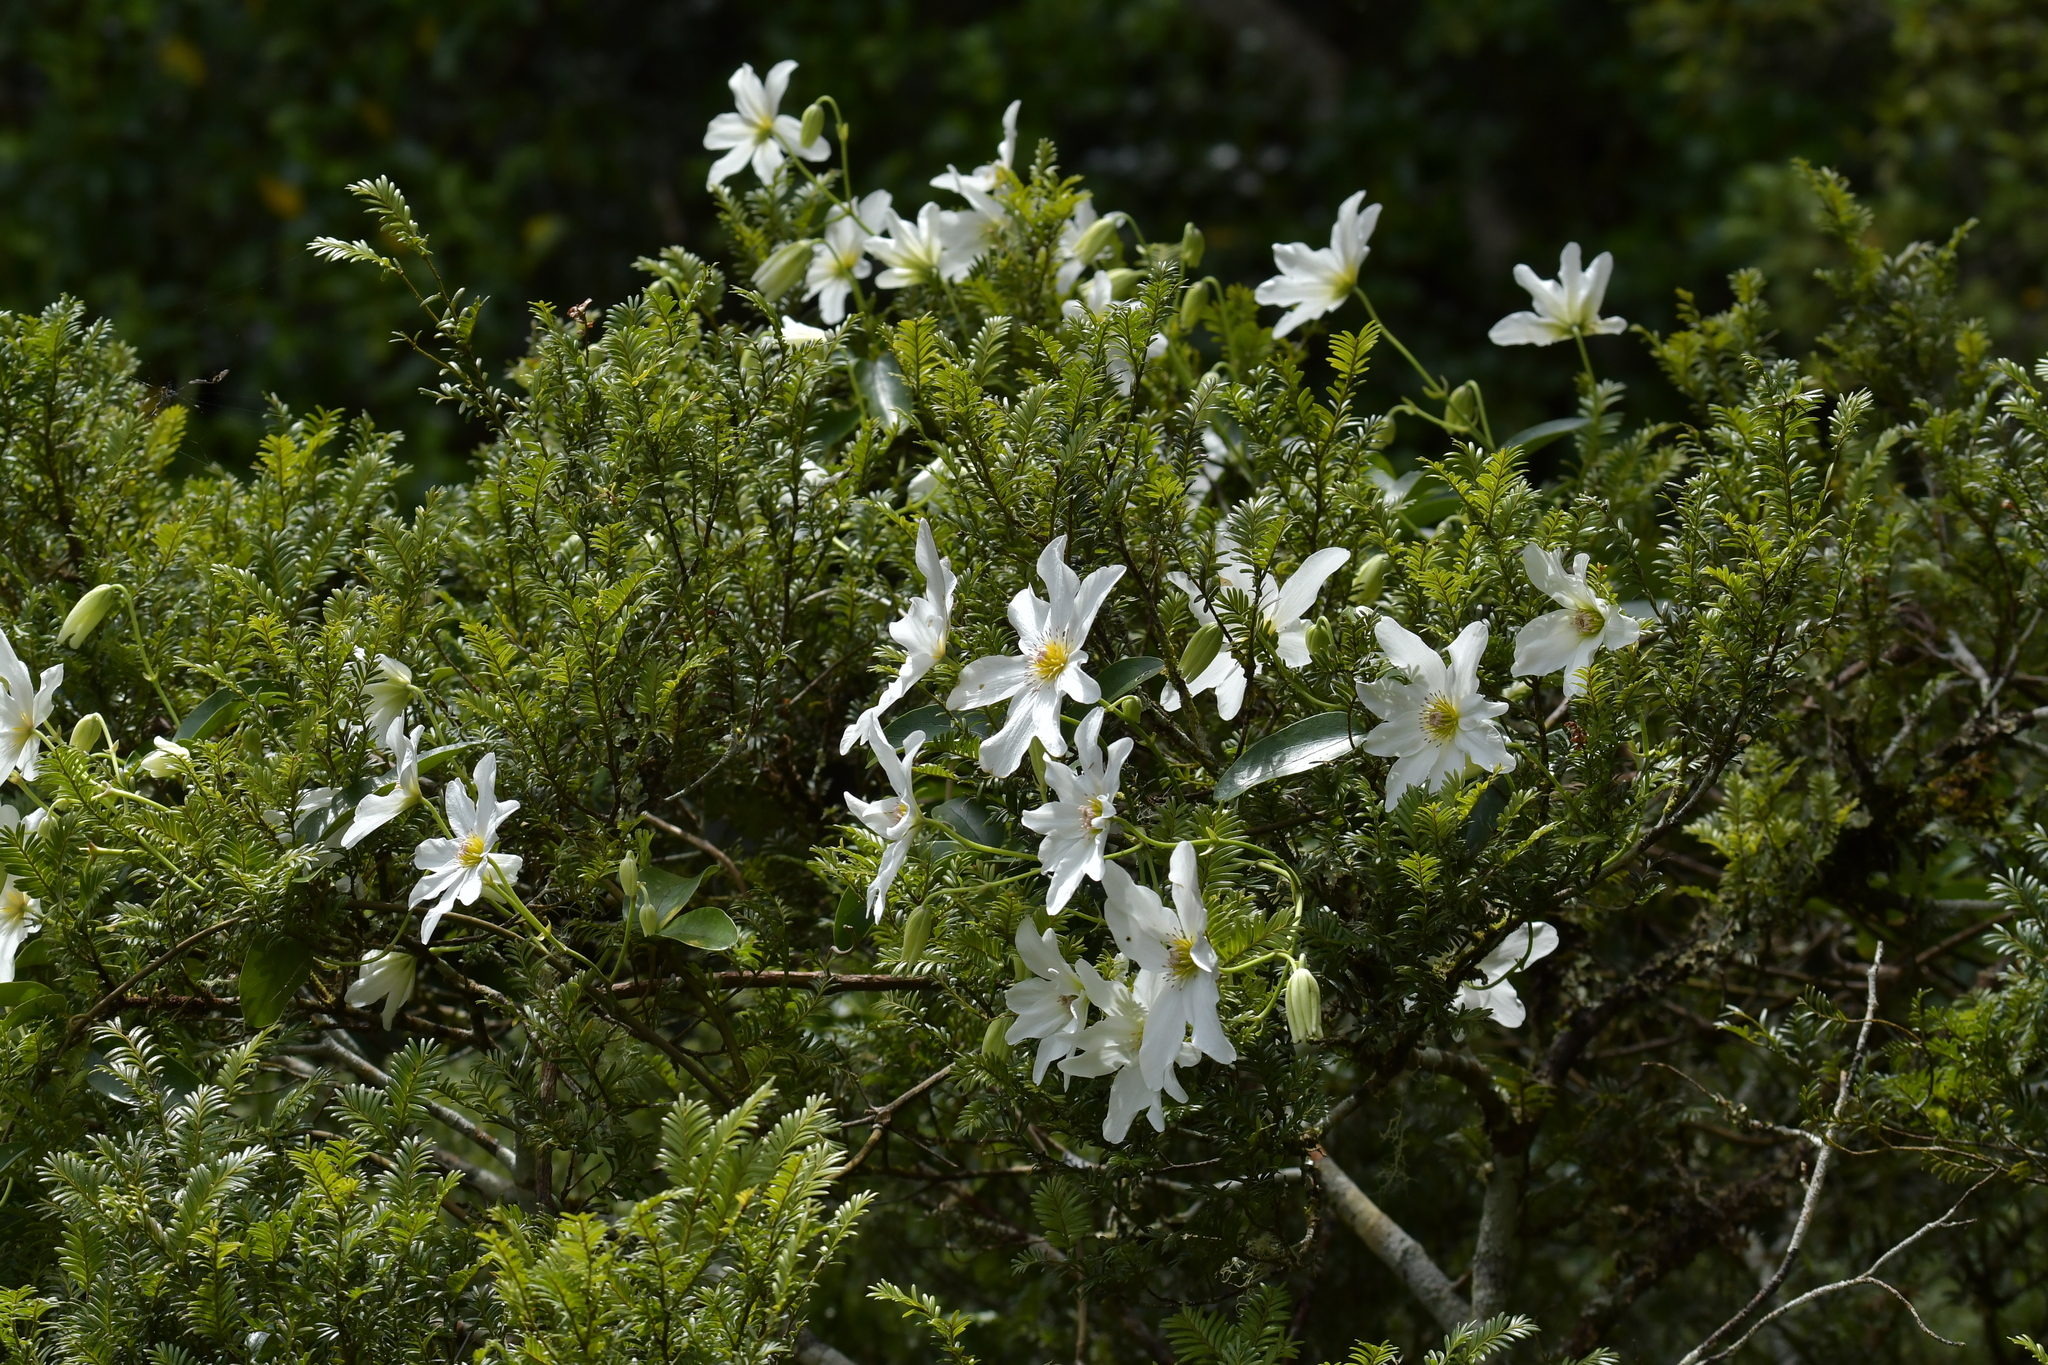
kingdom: Plantae
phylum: Tracheophyta
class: Magnoliopsida
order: Ranunculales
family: Ranunculaceae
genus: Clematis
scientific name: Clematis paniculata
